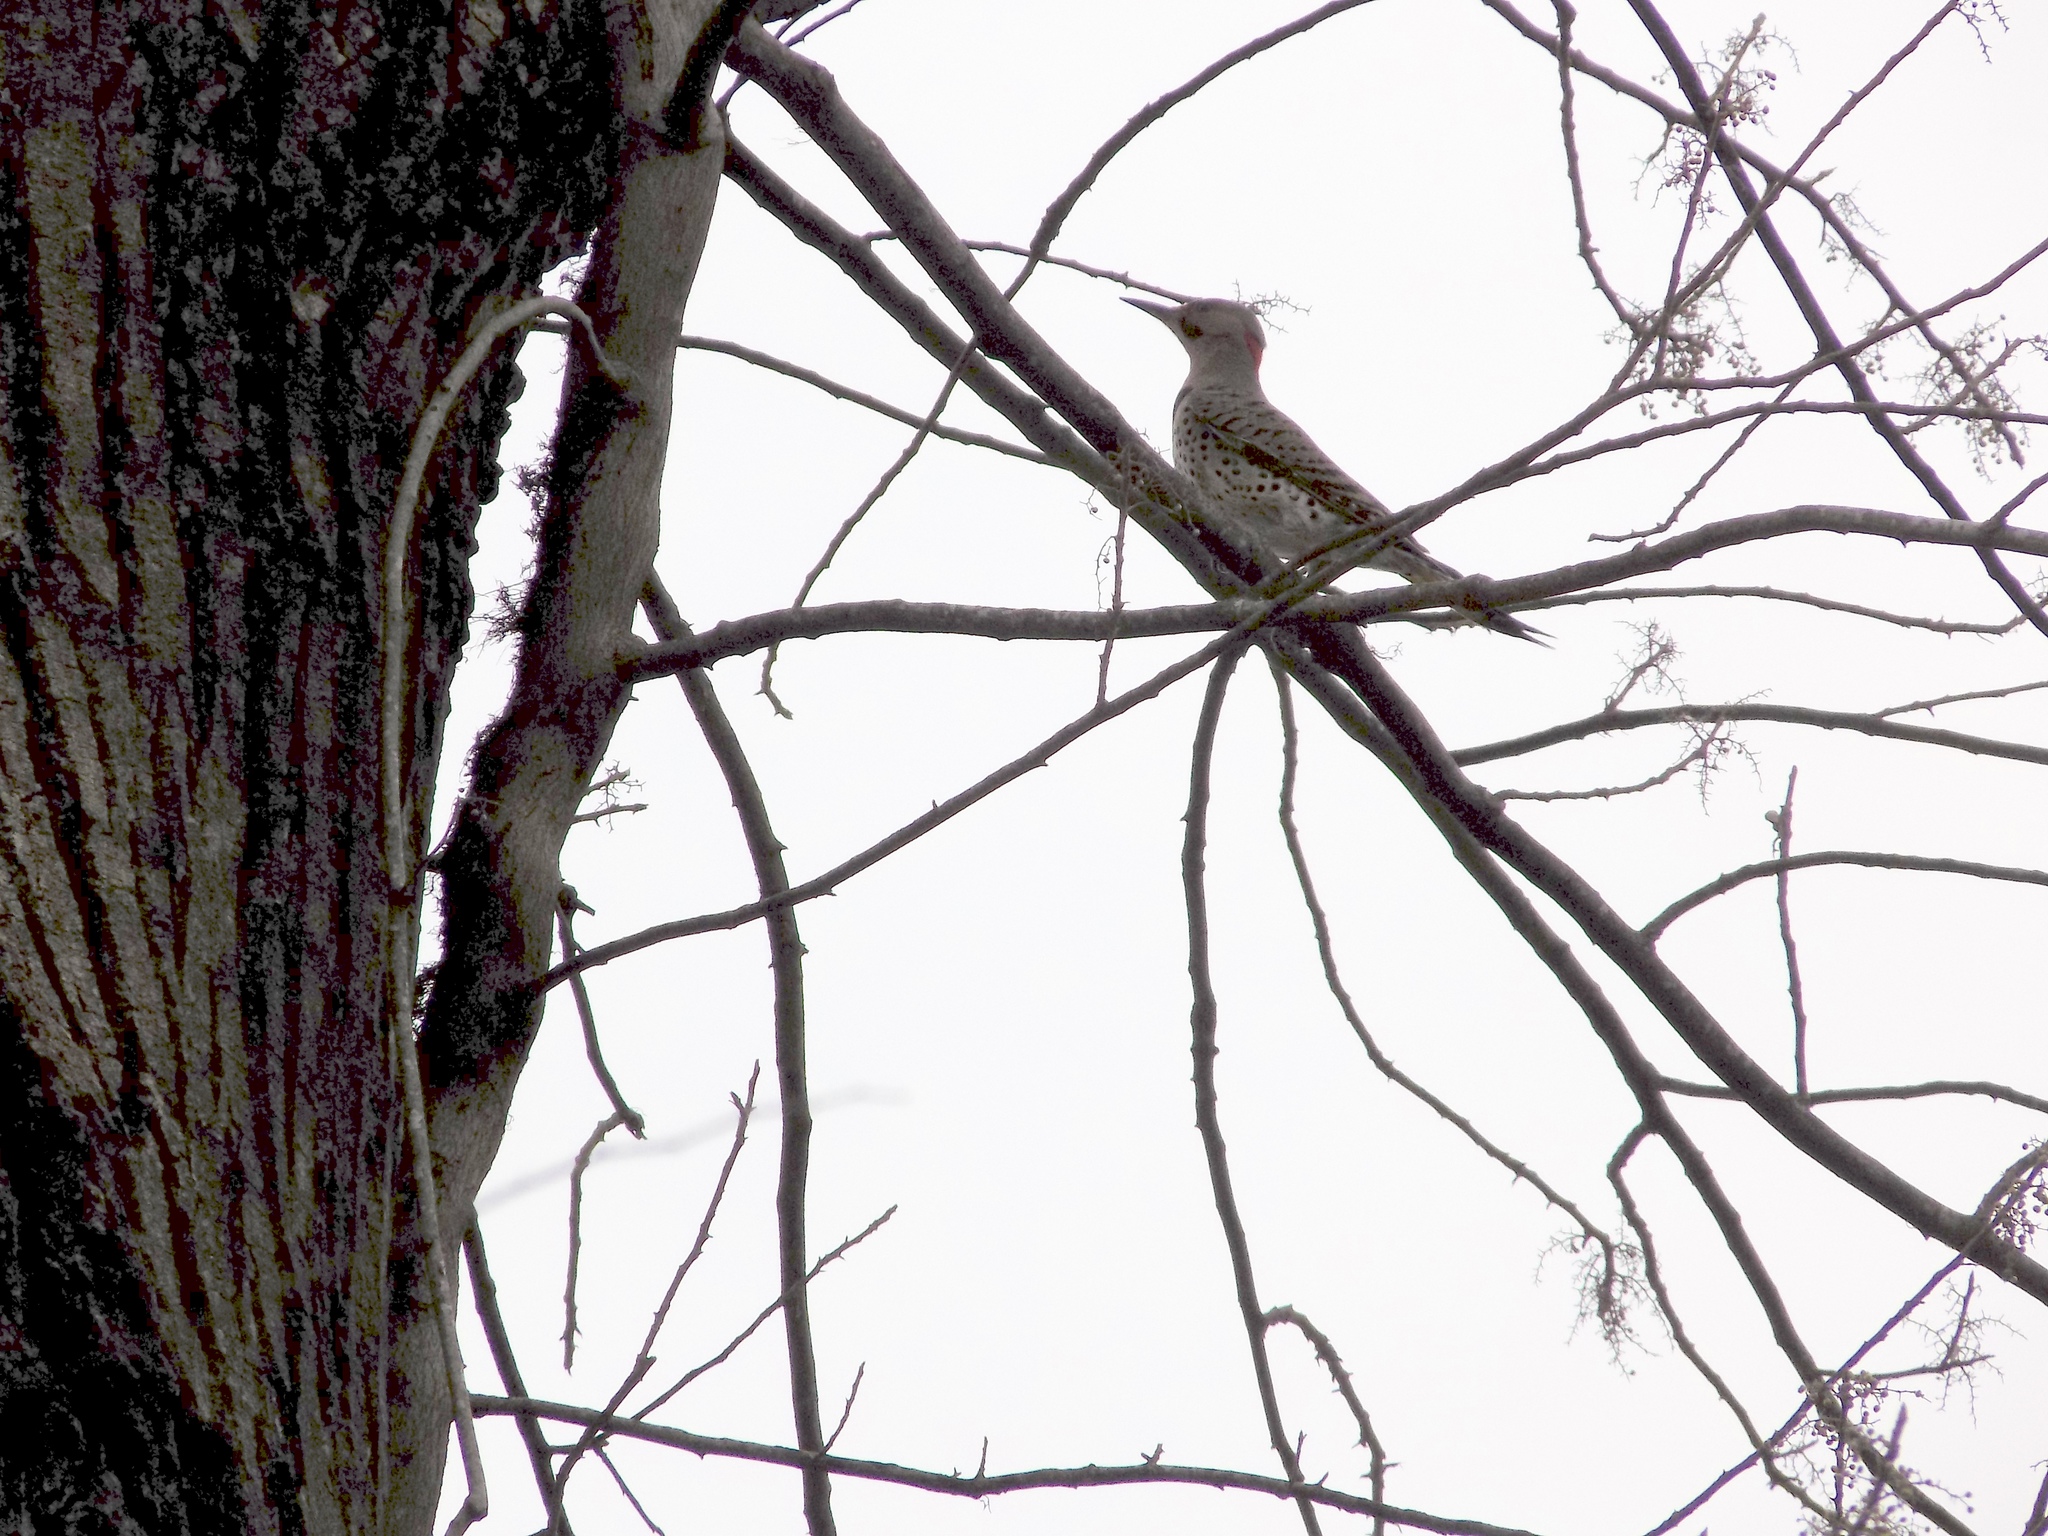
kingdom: Animalia
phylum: Chordata
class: Aves
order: Piciformes
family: Picidae
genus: Colaptes
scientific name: Colaptes auratus
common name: Northern flicker
